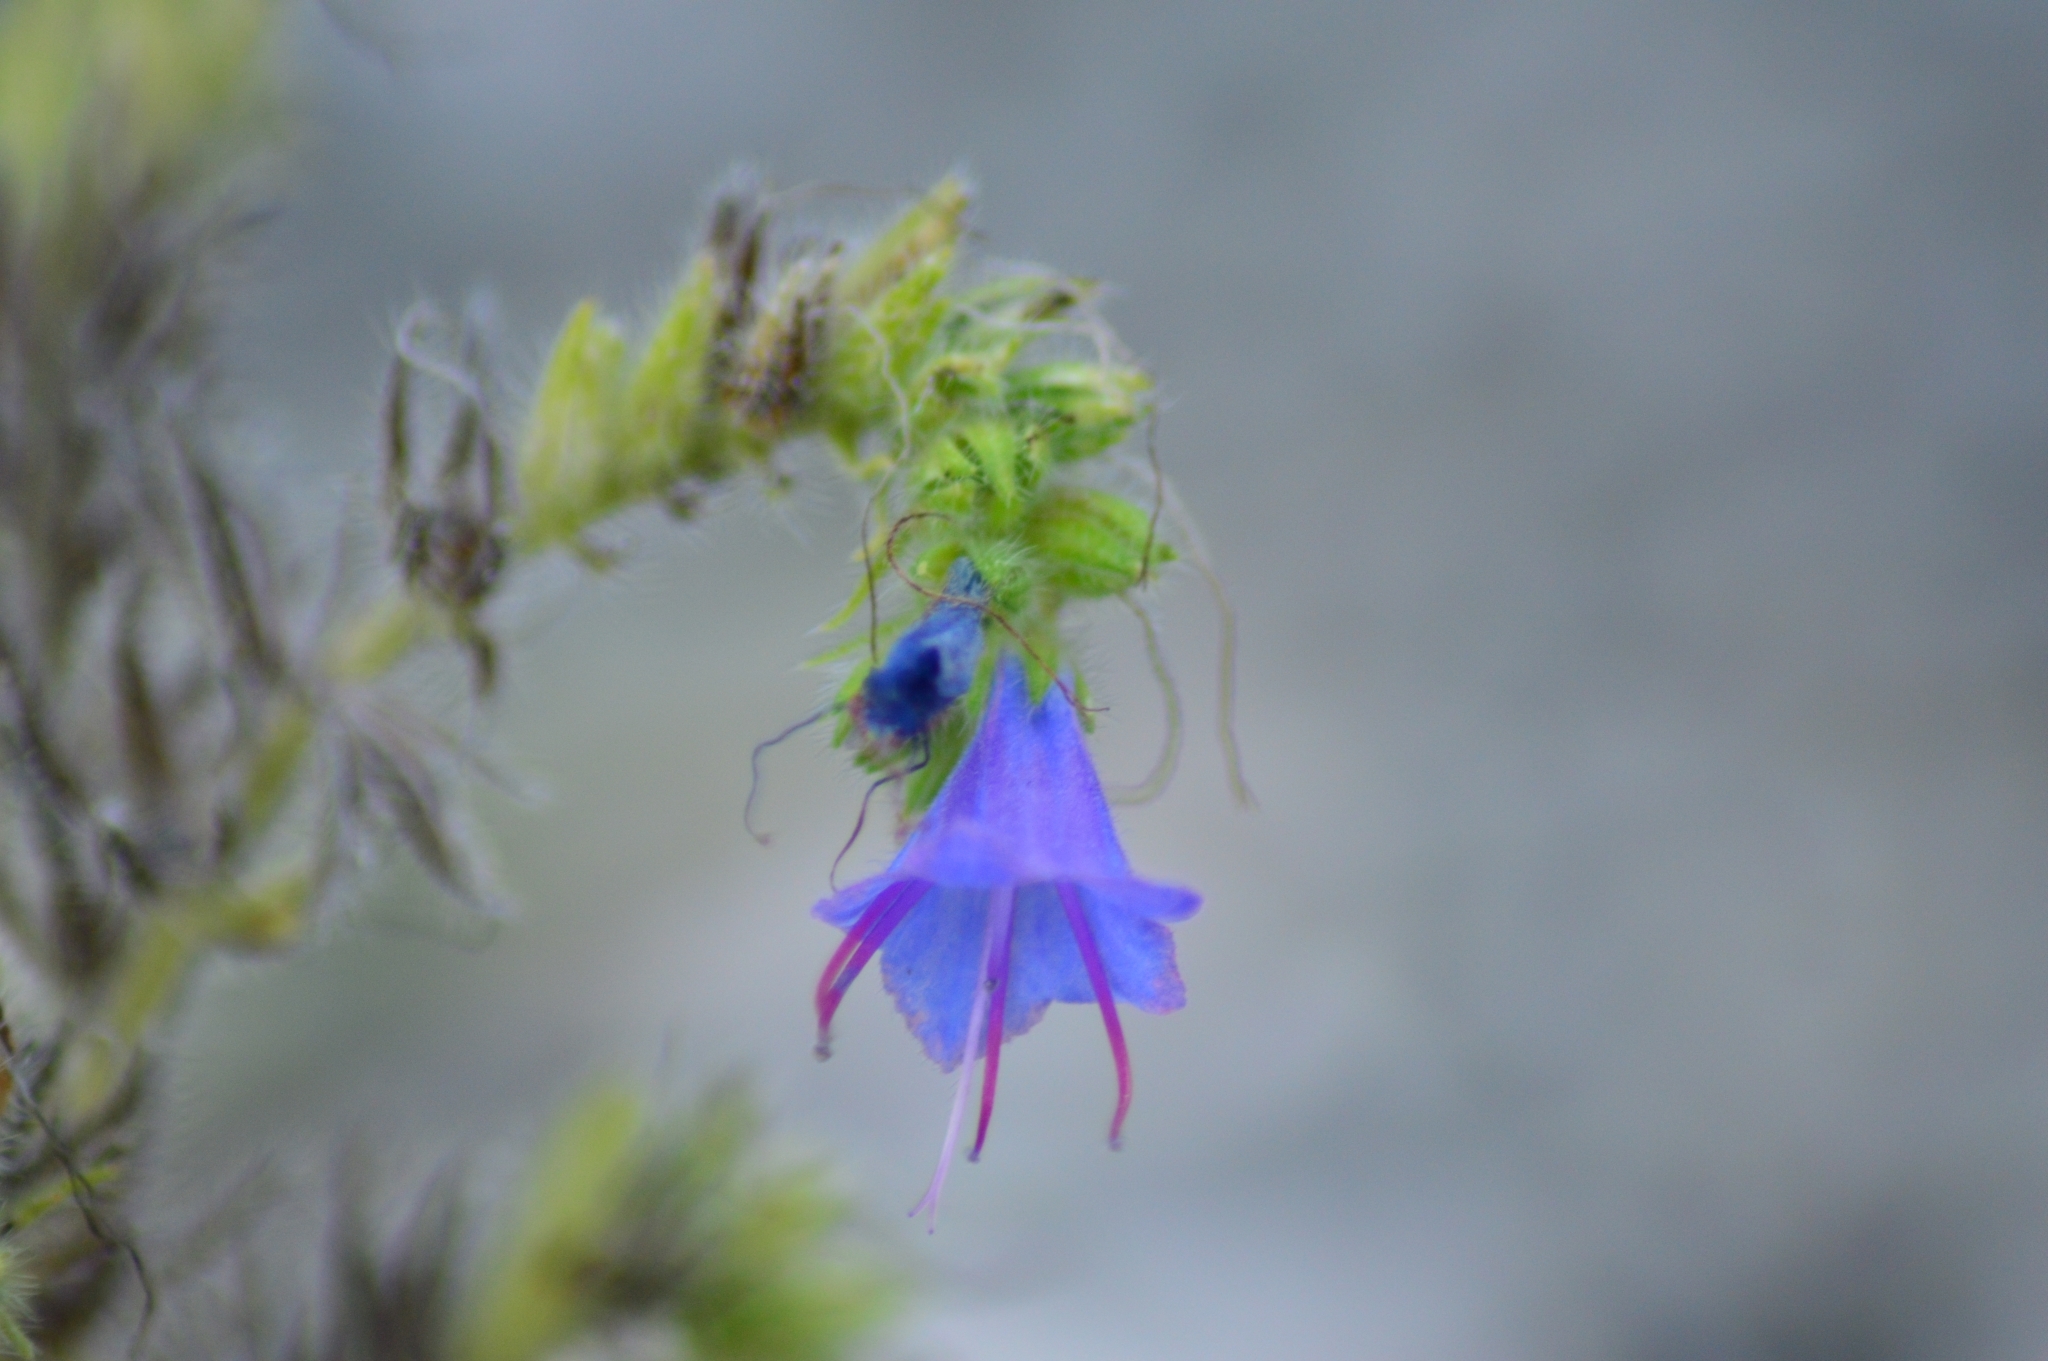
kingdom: Plantae
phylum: Tracheophyta
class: Magnoliopsida
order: Boraginales
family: Boraginaceae
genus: Echium
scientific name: Echium vulgare
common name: Common viper's bugloss
